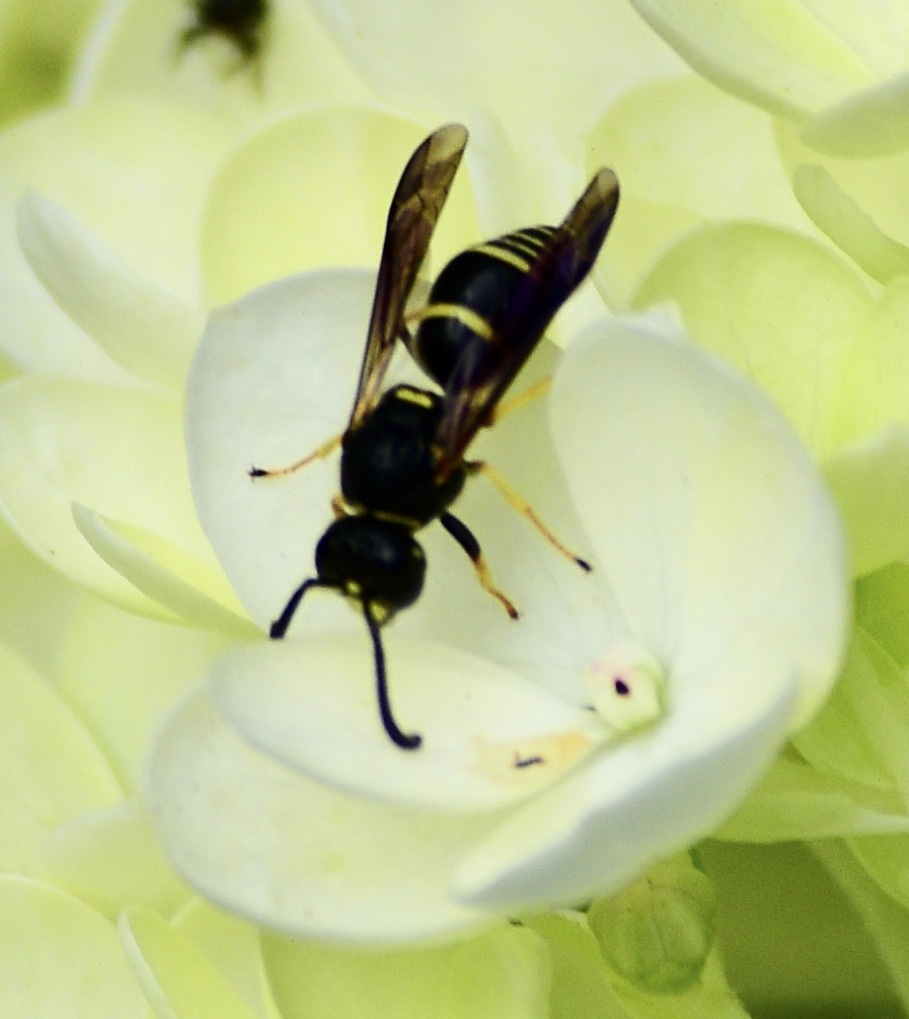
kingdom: Animalia
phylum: Arthropoda
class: Insecta
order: Hymenoptera
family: Eumenidae
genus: Euodynerus
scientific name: Euodynerus
